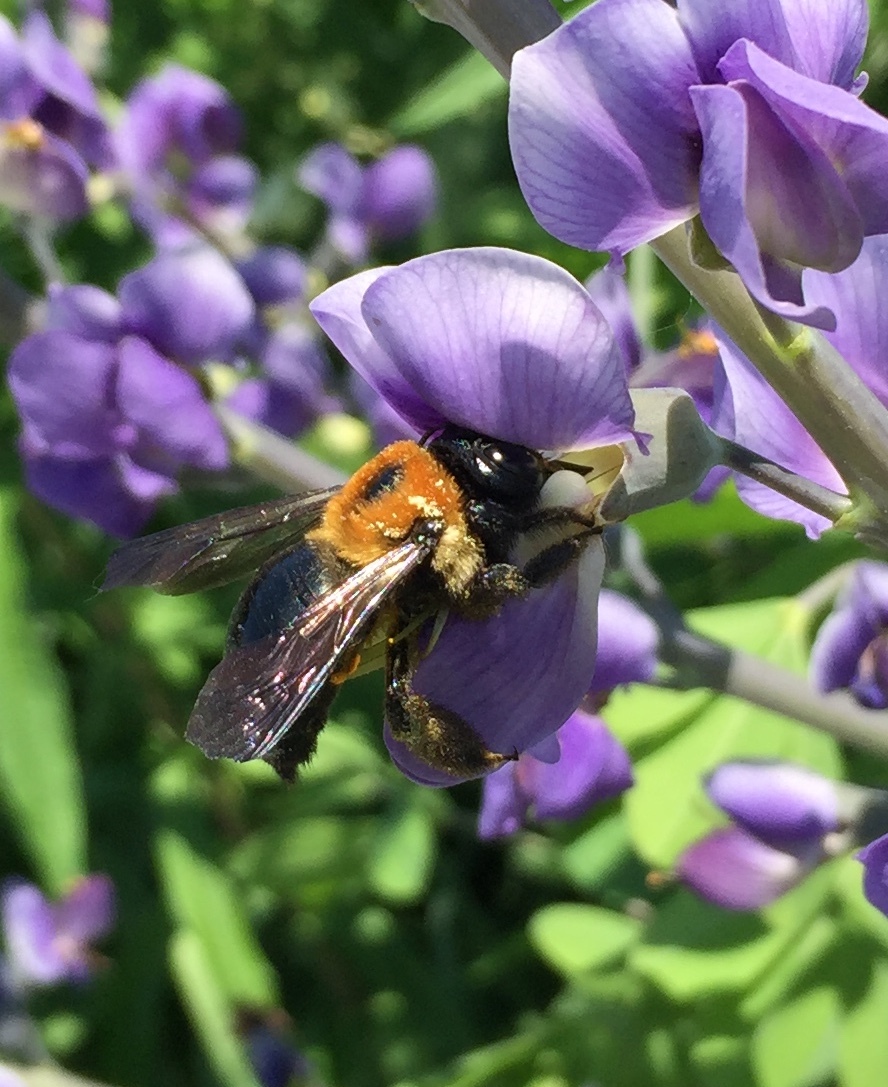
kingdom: Animalia
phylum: Arthropoda
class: Insecta
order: Hymenoptera
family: Apidae
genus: Xylocopa
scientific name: Xylocopa virginica
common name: Carpenter bee
